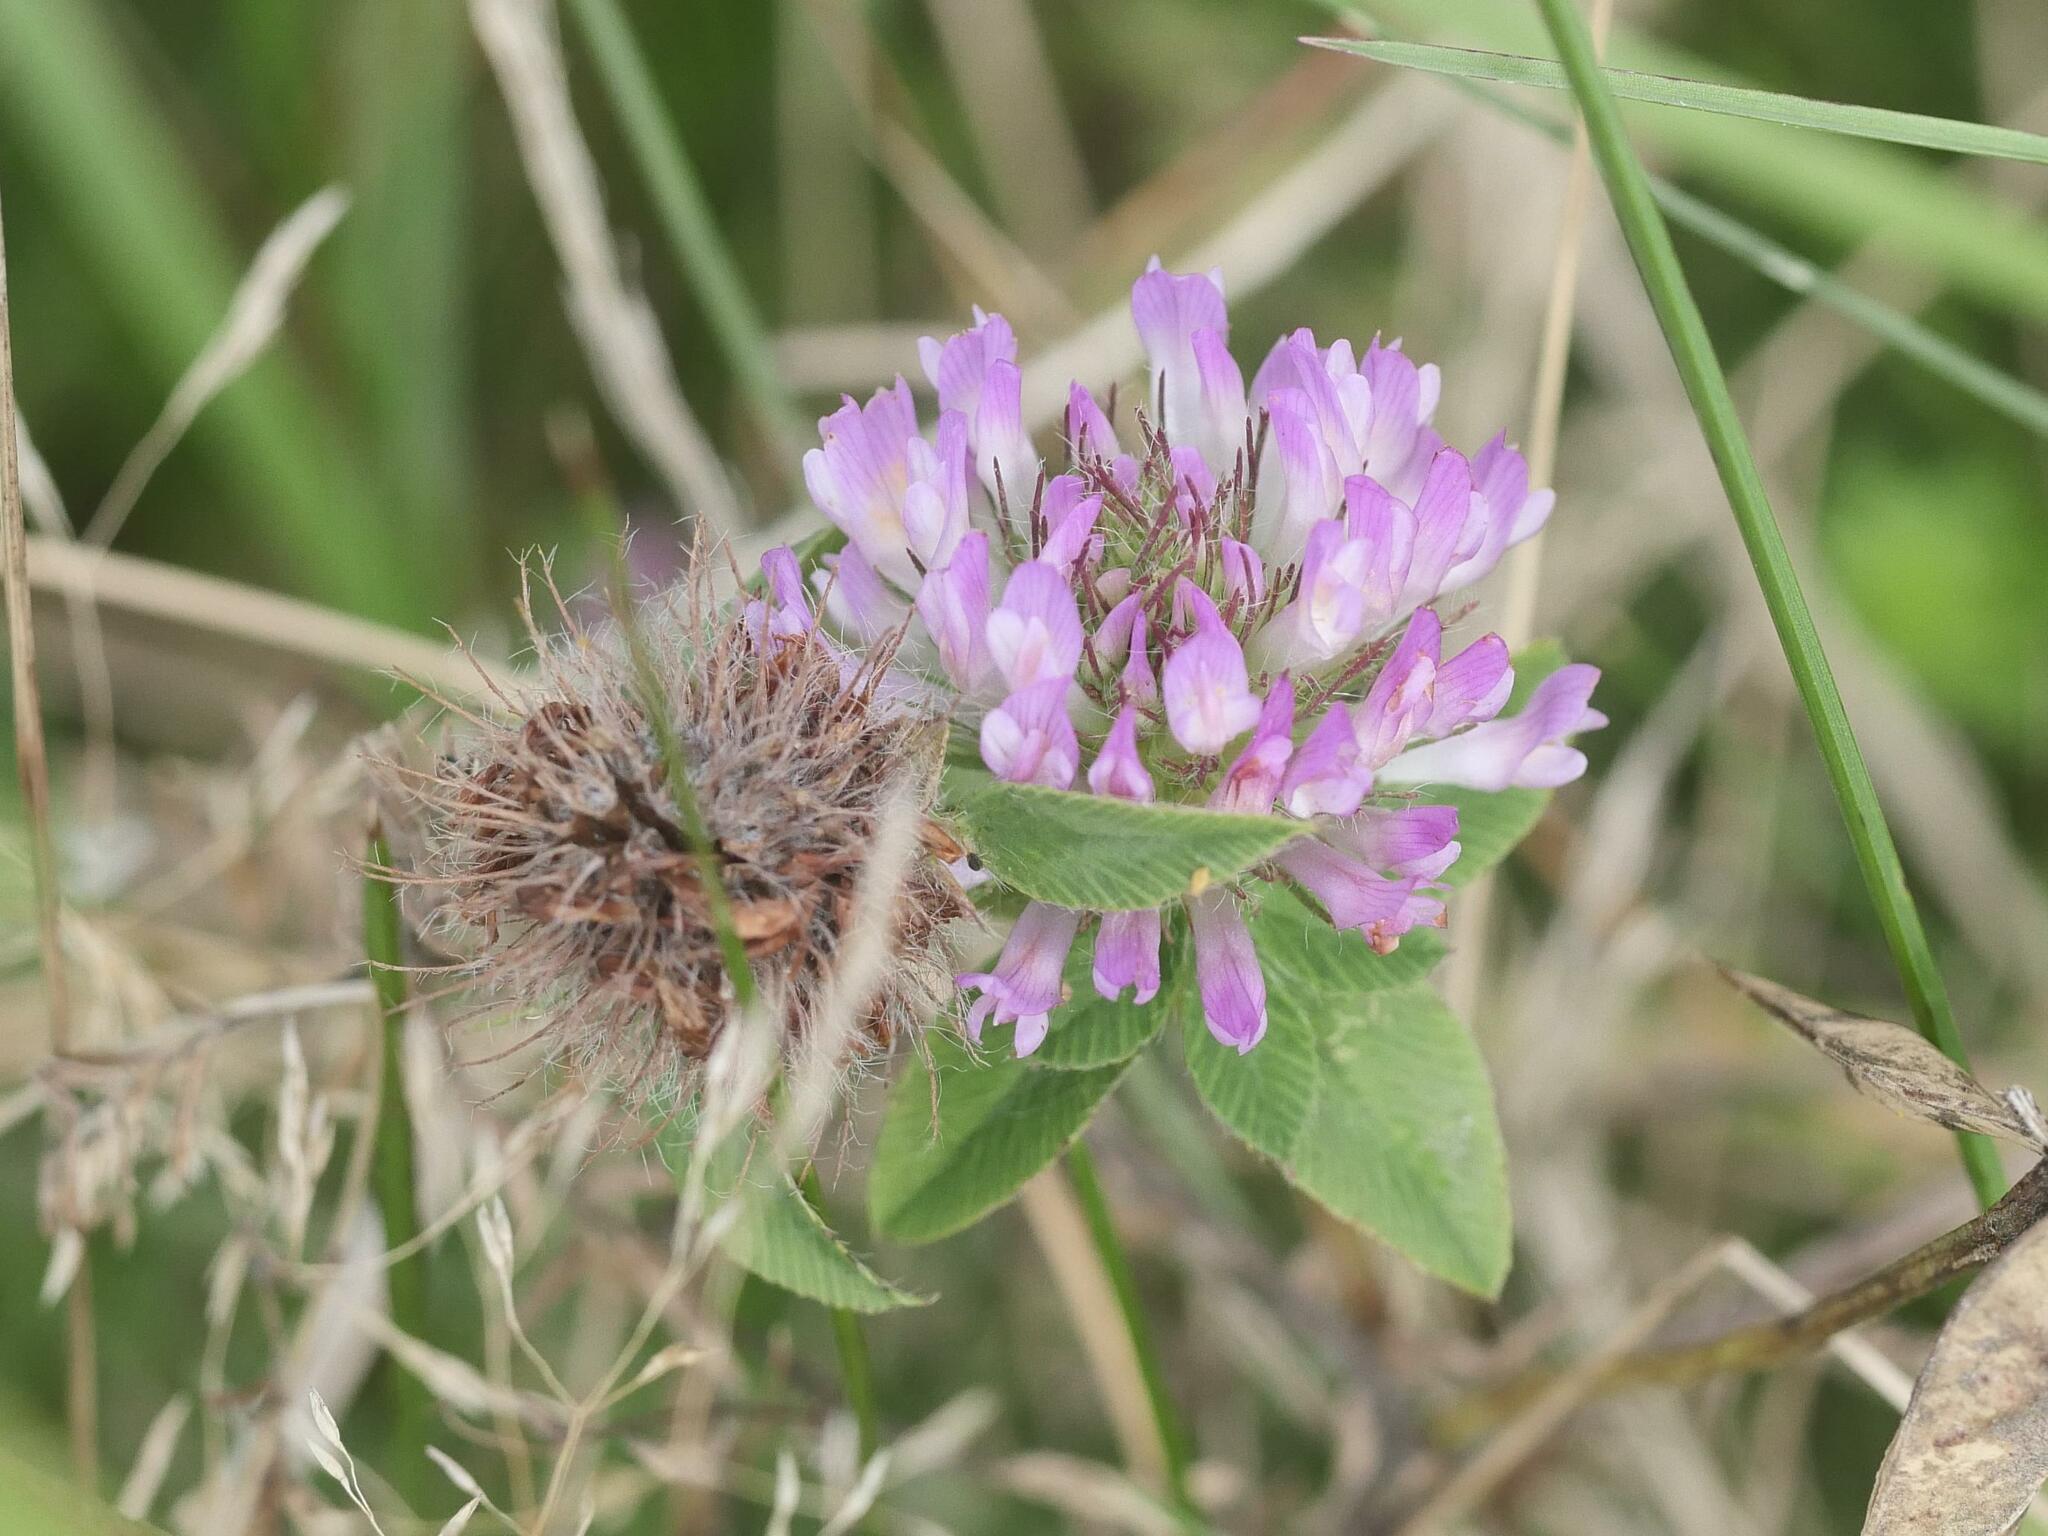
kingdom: Plantae
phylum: Tracheophyta
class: Magnoliopsida
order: Fabales
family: Fabaceae
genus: Trifolium
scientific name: Trifolium pratense
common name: Red clover
